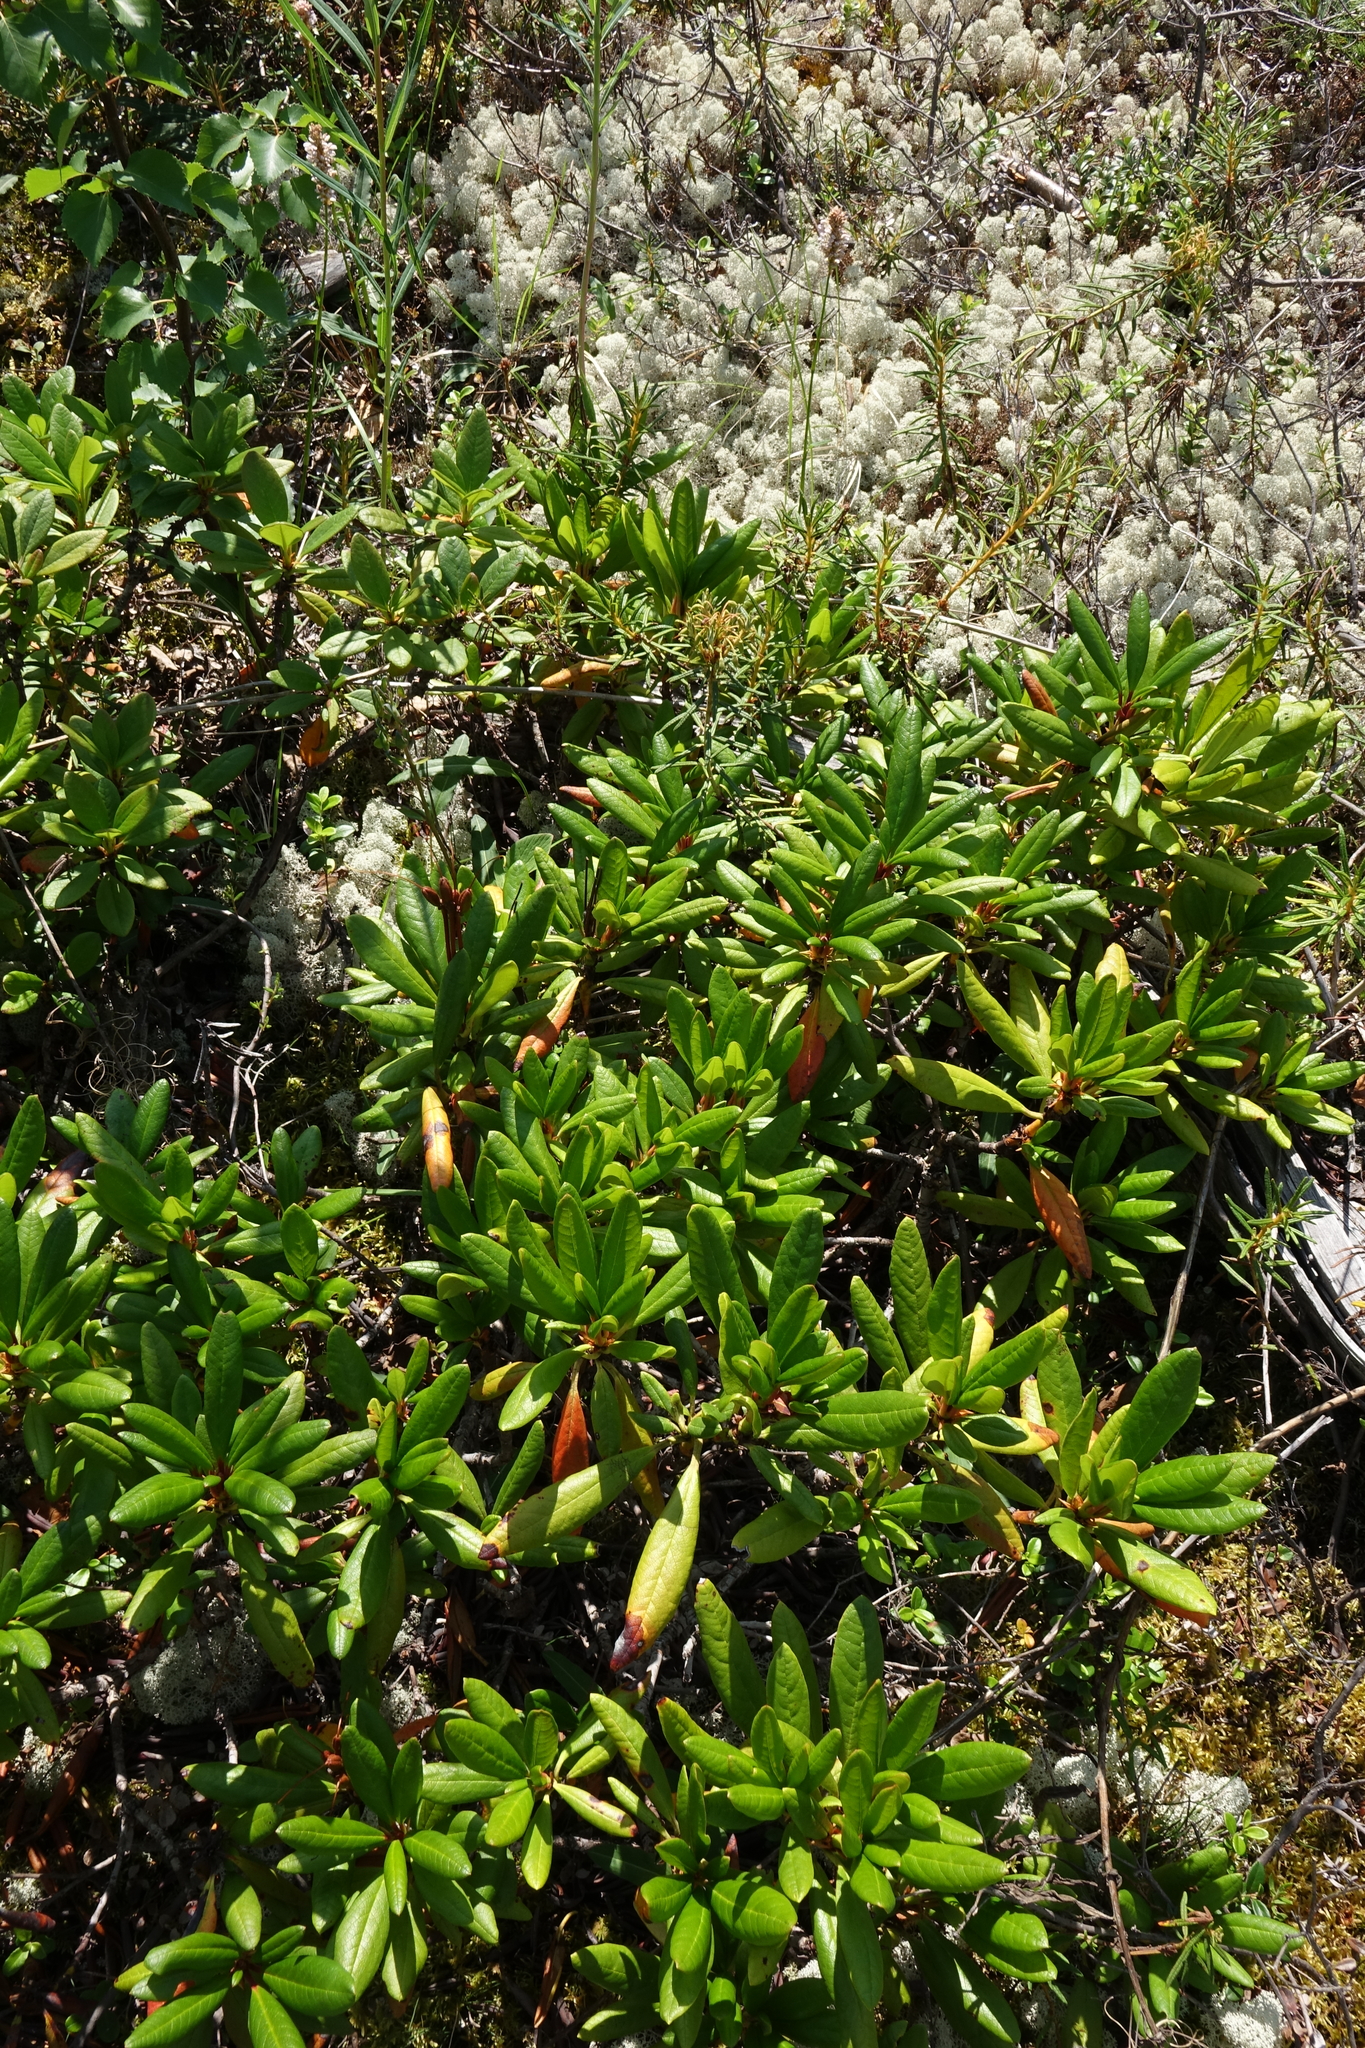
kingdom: Plantae
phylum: Tracheophyta
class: Magnoliopsida
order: Ericales
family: Ericaceae
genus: Rhododendron
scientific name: Rhododendron aureum
